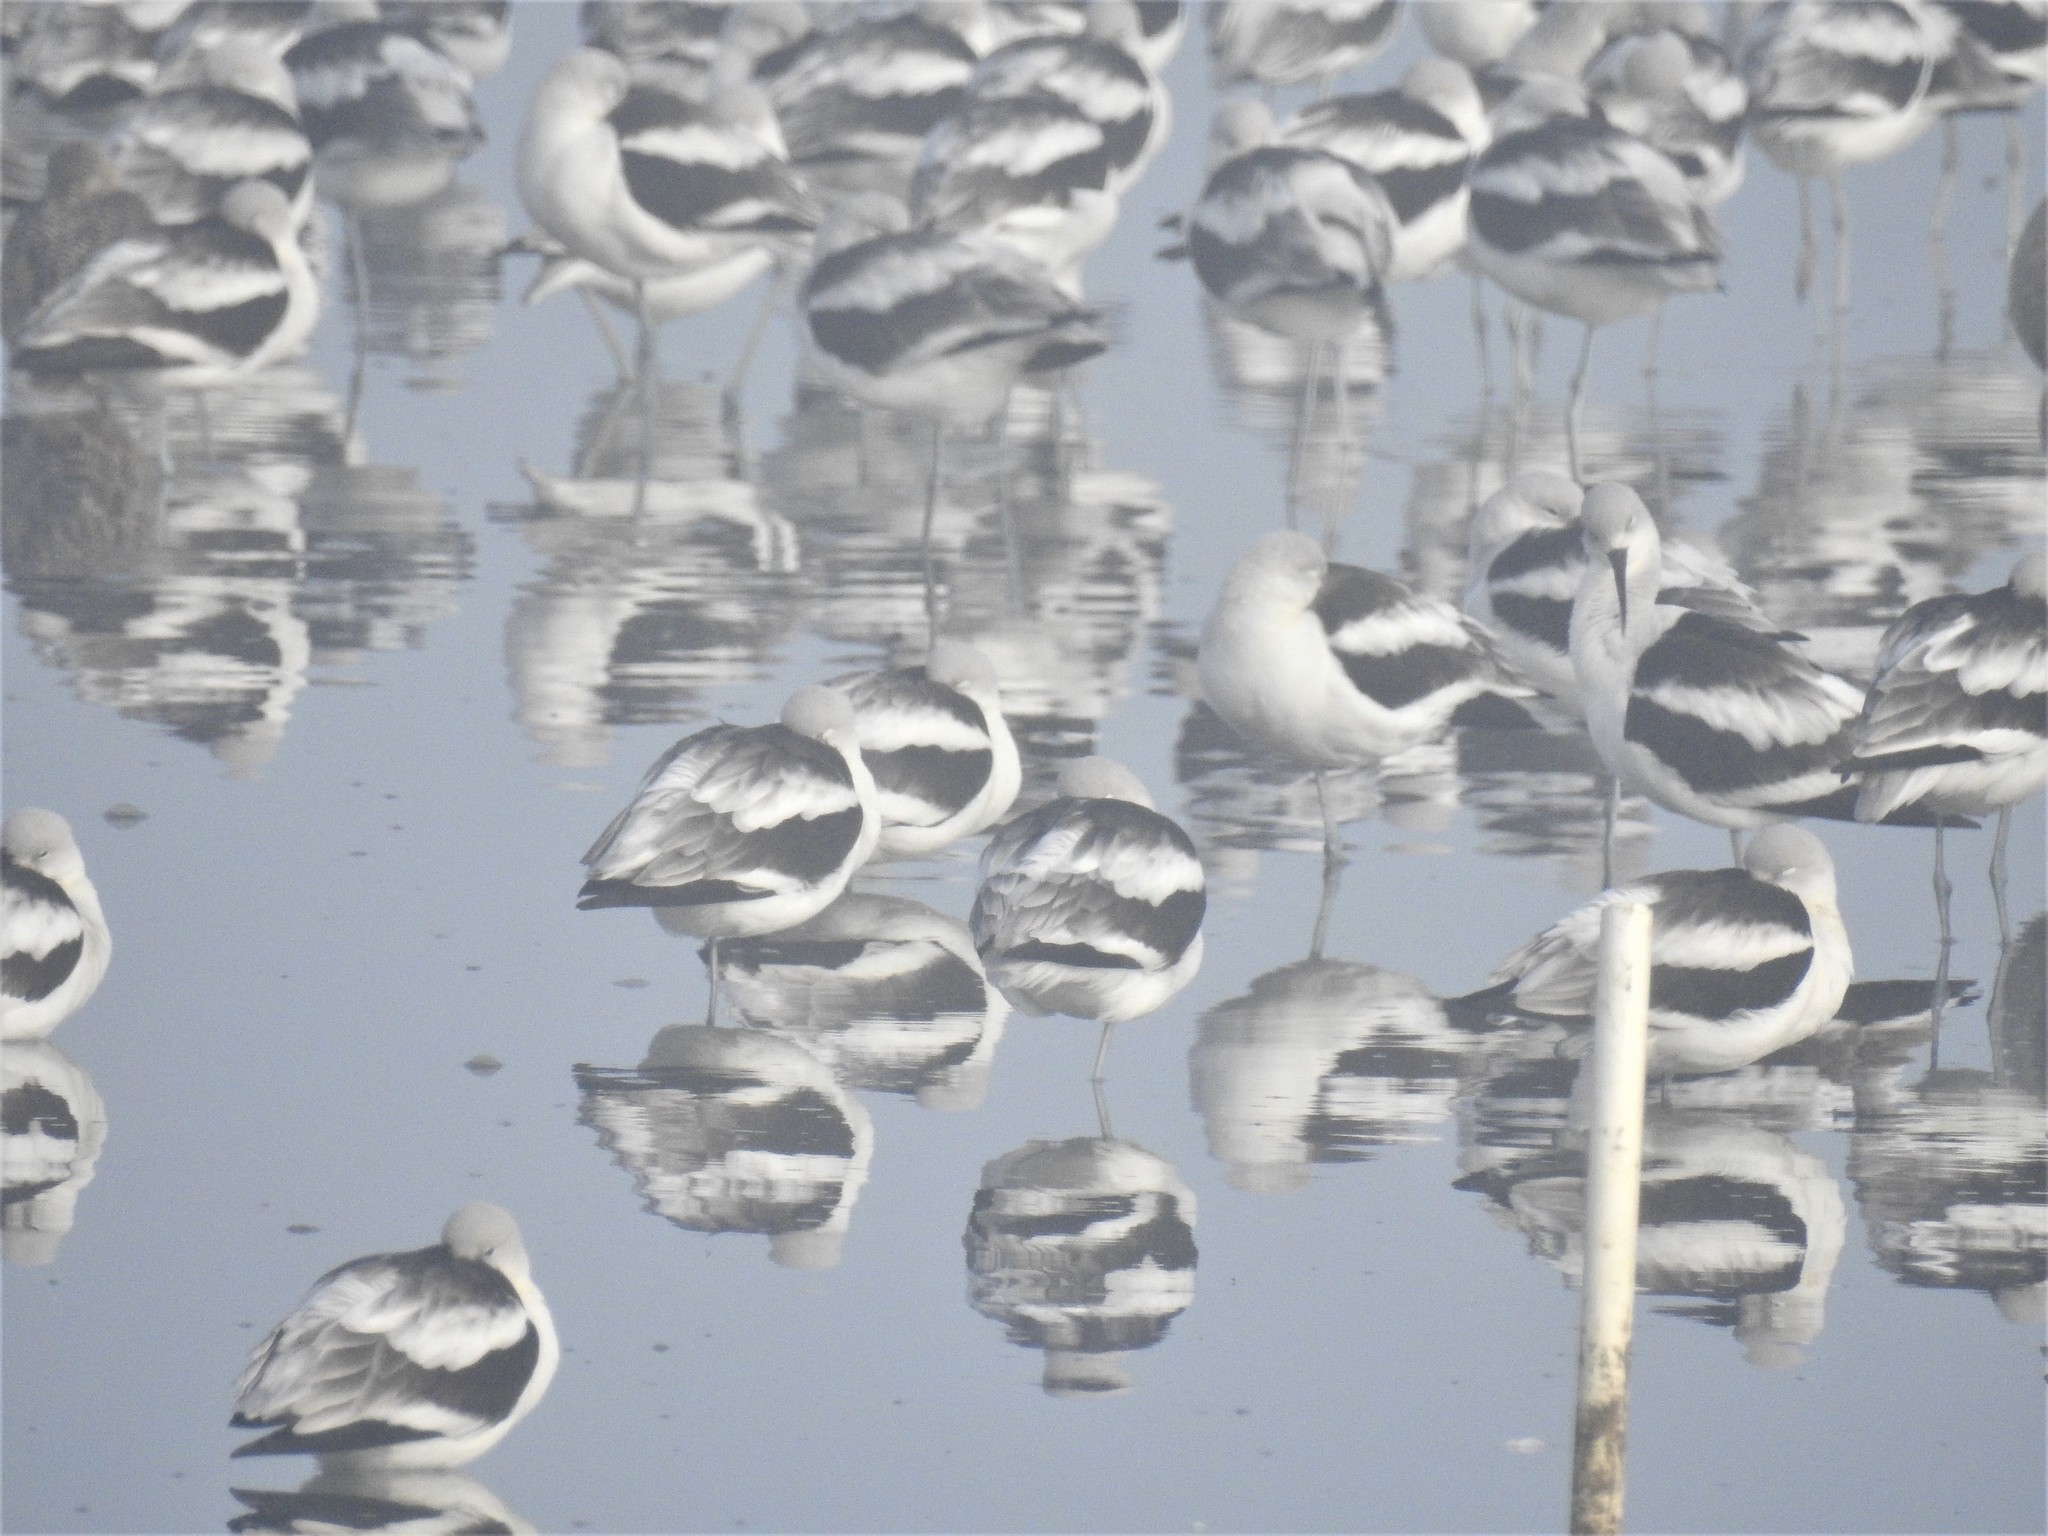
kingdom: Animalia
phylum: Chordata
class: Aves
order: Charadriiformes
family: Recurvirostridae
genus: Recurvirostra
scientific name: Recurvirostra americana
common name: American avocet
